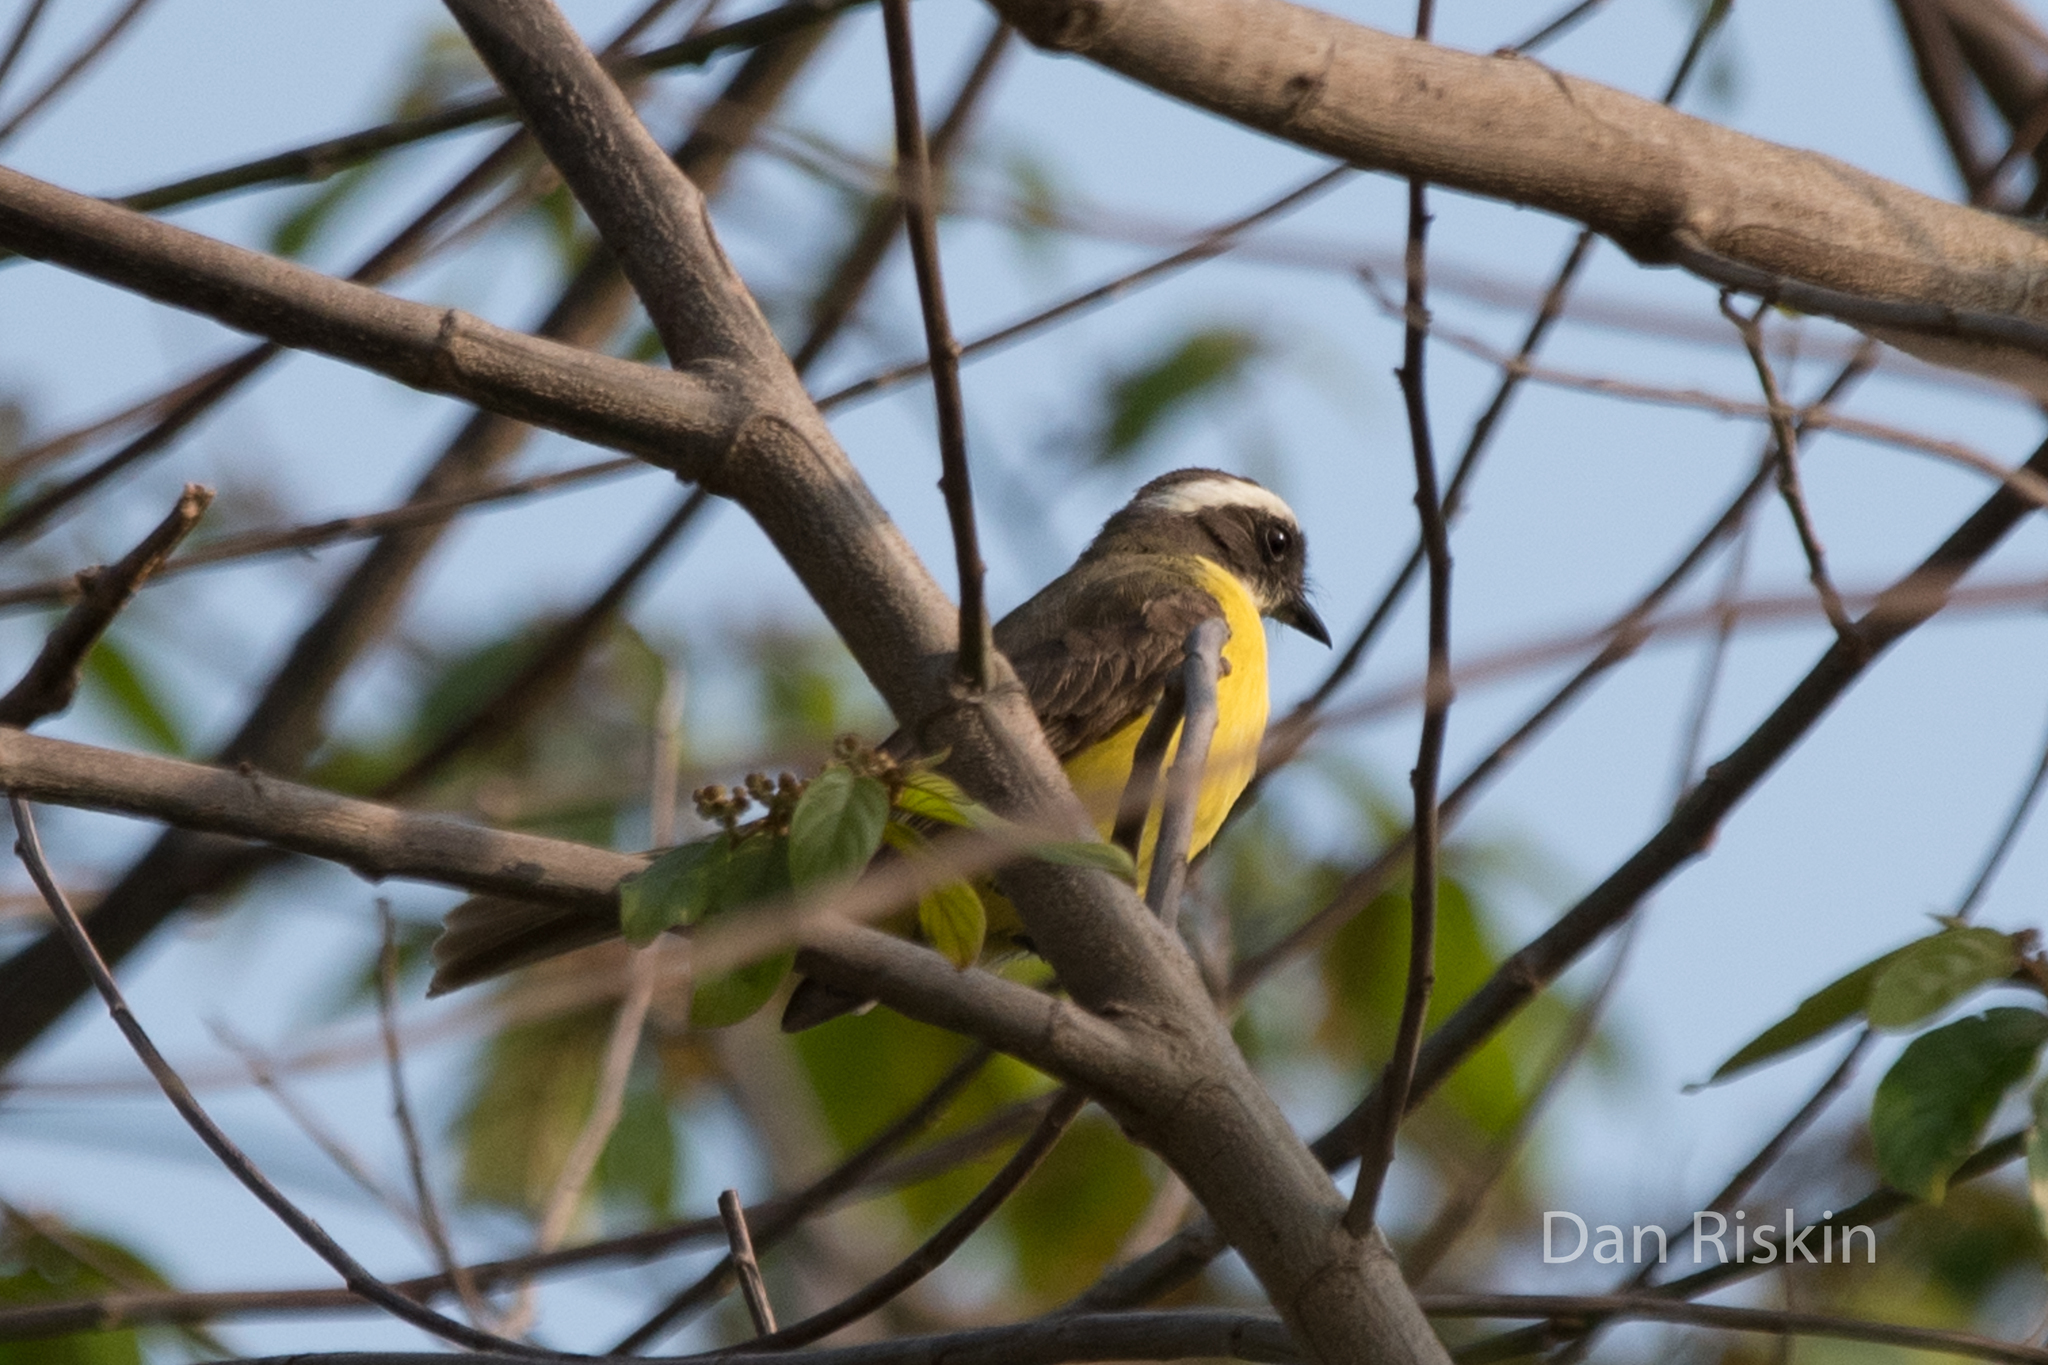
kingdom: Animalia
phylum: Chordata
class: Aves
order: Passeriformes
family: Tyrannidae
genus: Myiozetetes
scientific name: Myiozetetes similis
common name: Social flycatcher
